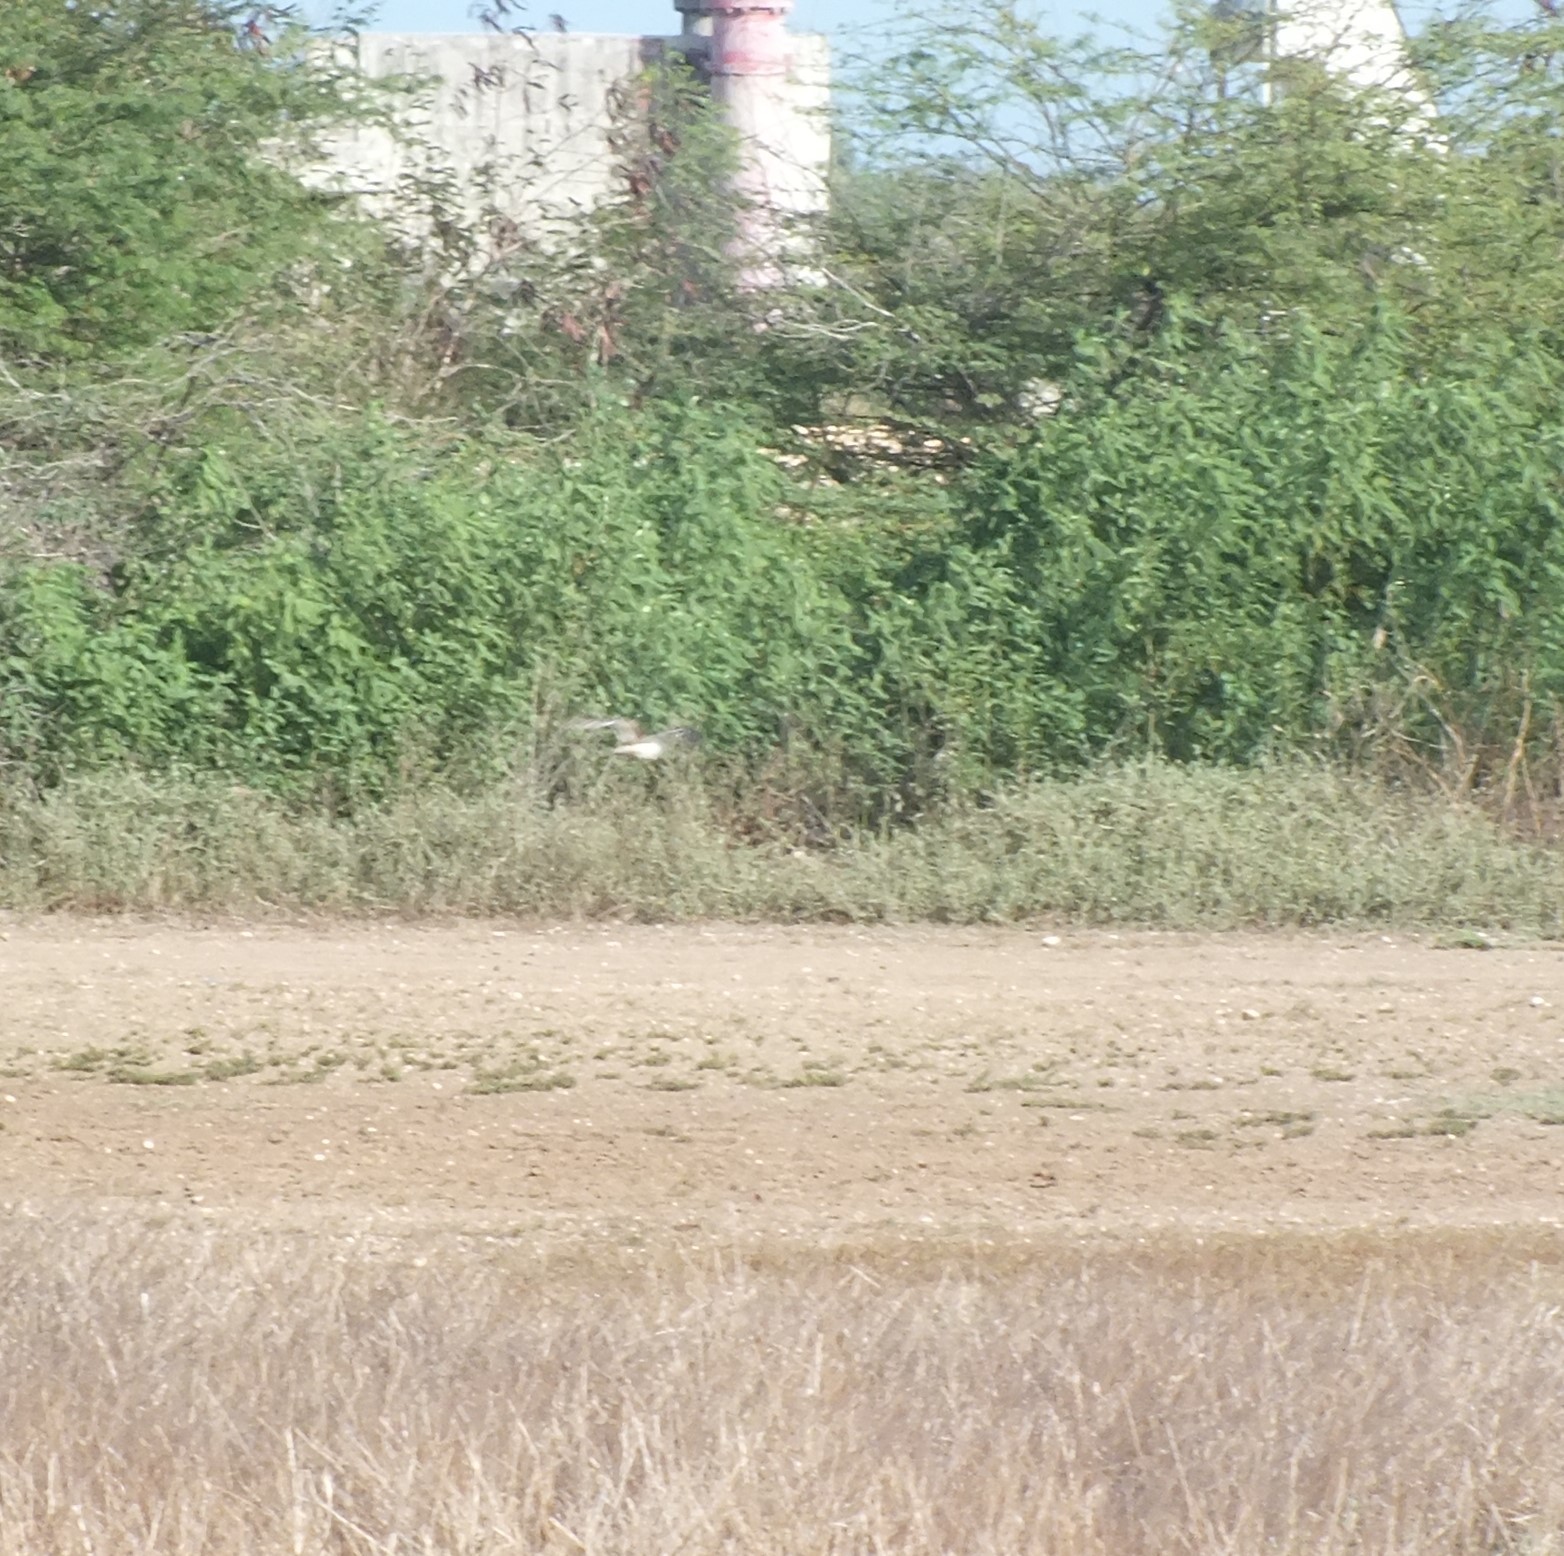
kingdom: Animalia
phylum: Chordata
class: Aves
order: Charadriiformes
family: Charadriidae
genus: Charadrius
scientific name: Charadrius vociferus
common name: Killdeer
